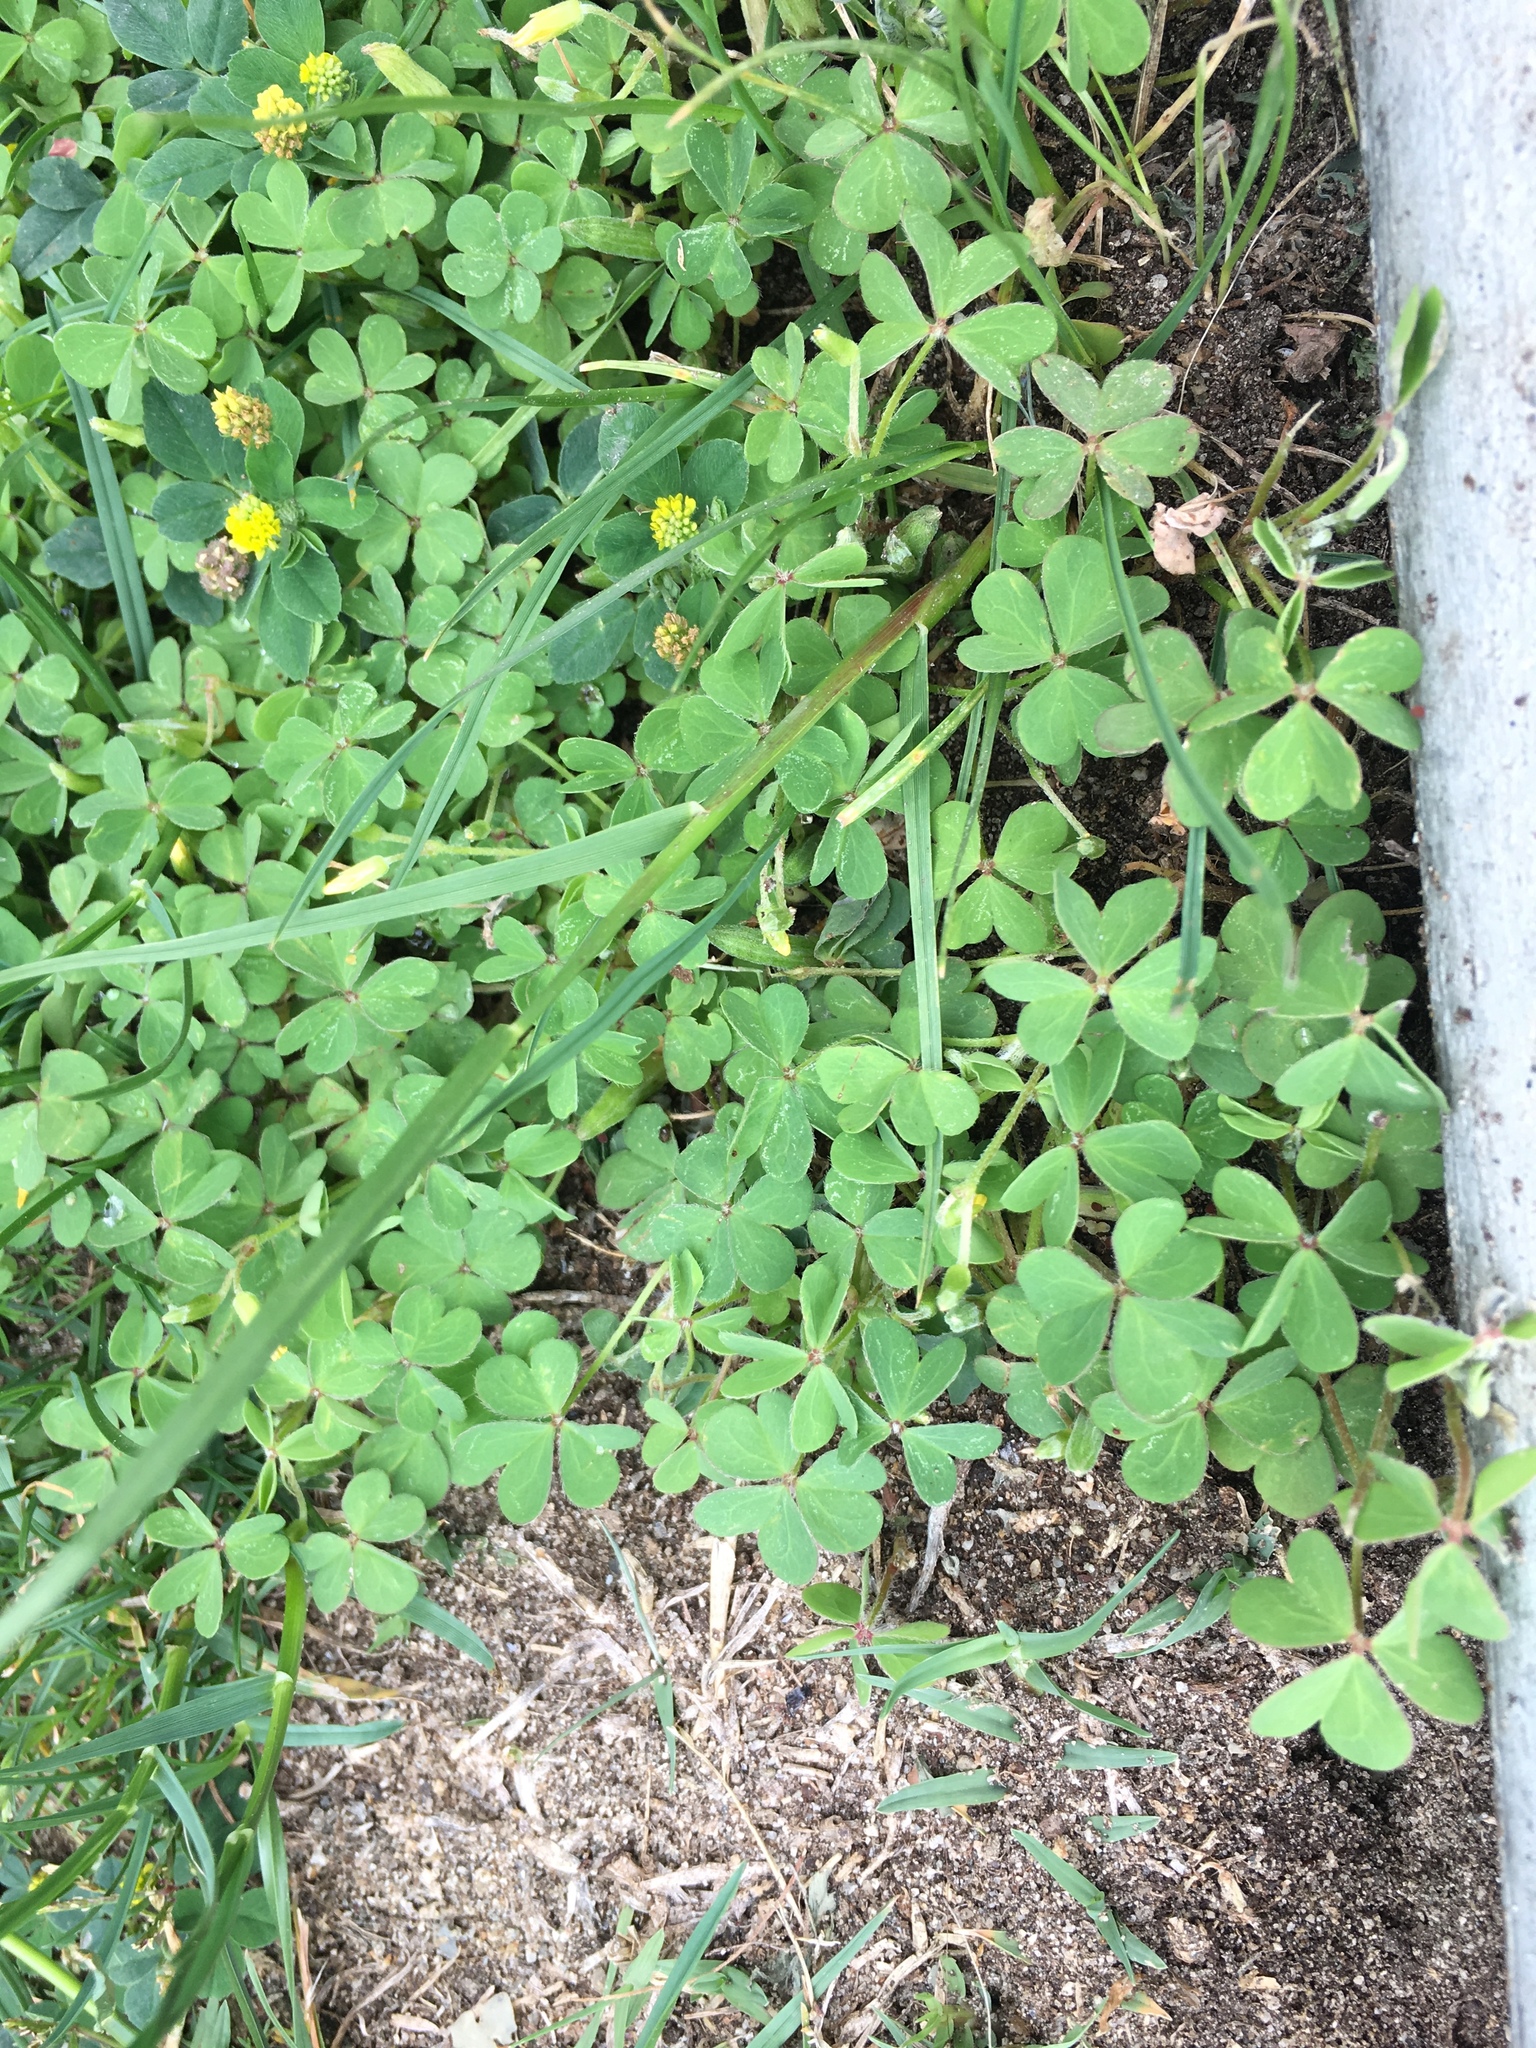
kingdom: Plantae
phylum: Tracheophyta
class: Magnoliopsida
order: Oxalidales
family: Oxalidaceae
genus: Oxalis
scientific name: Oxalis corniculata
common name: Procumbent yellow-sorrel
